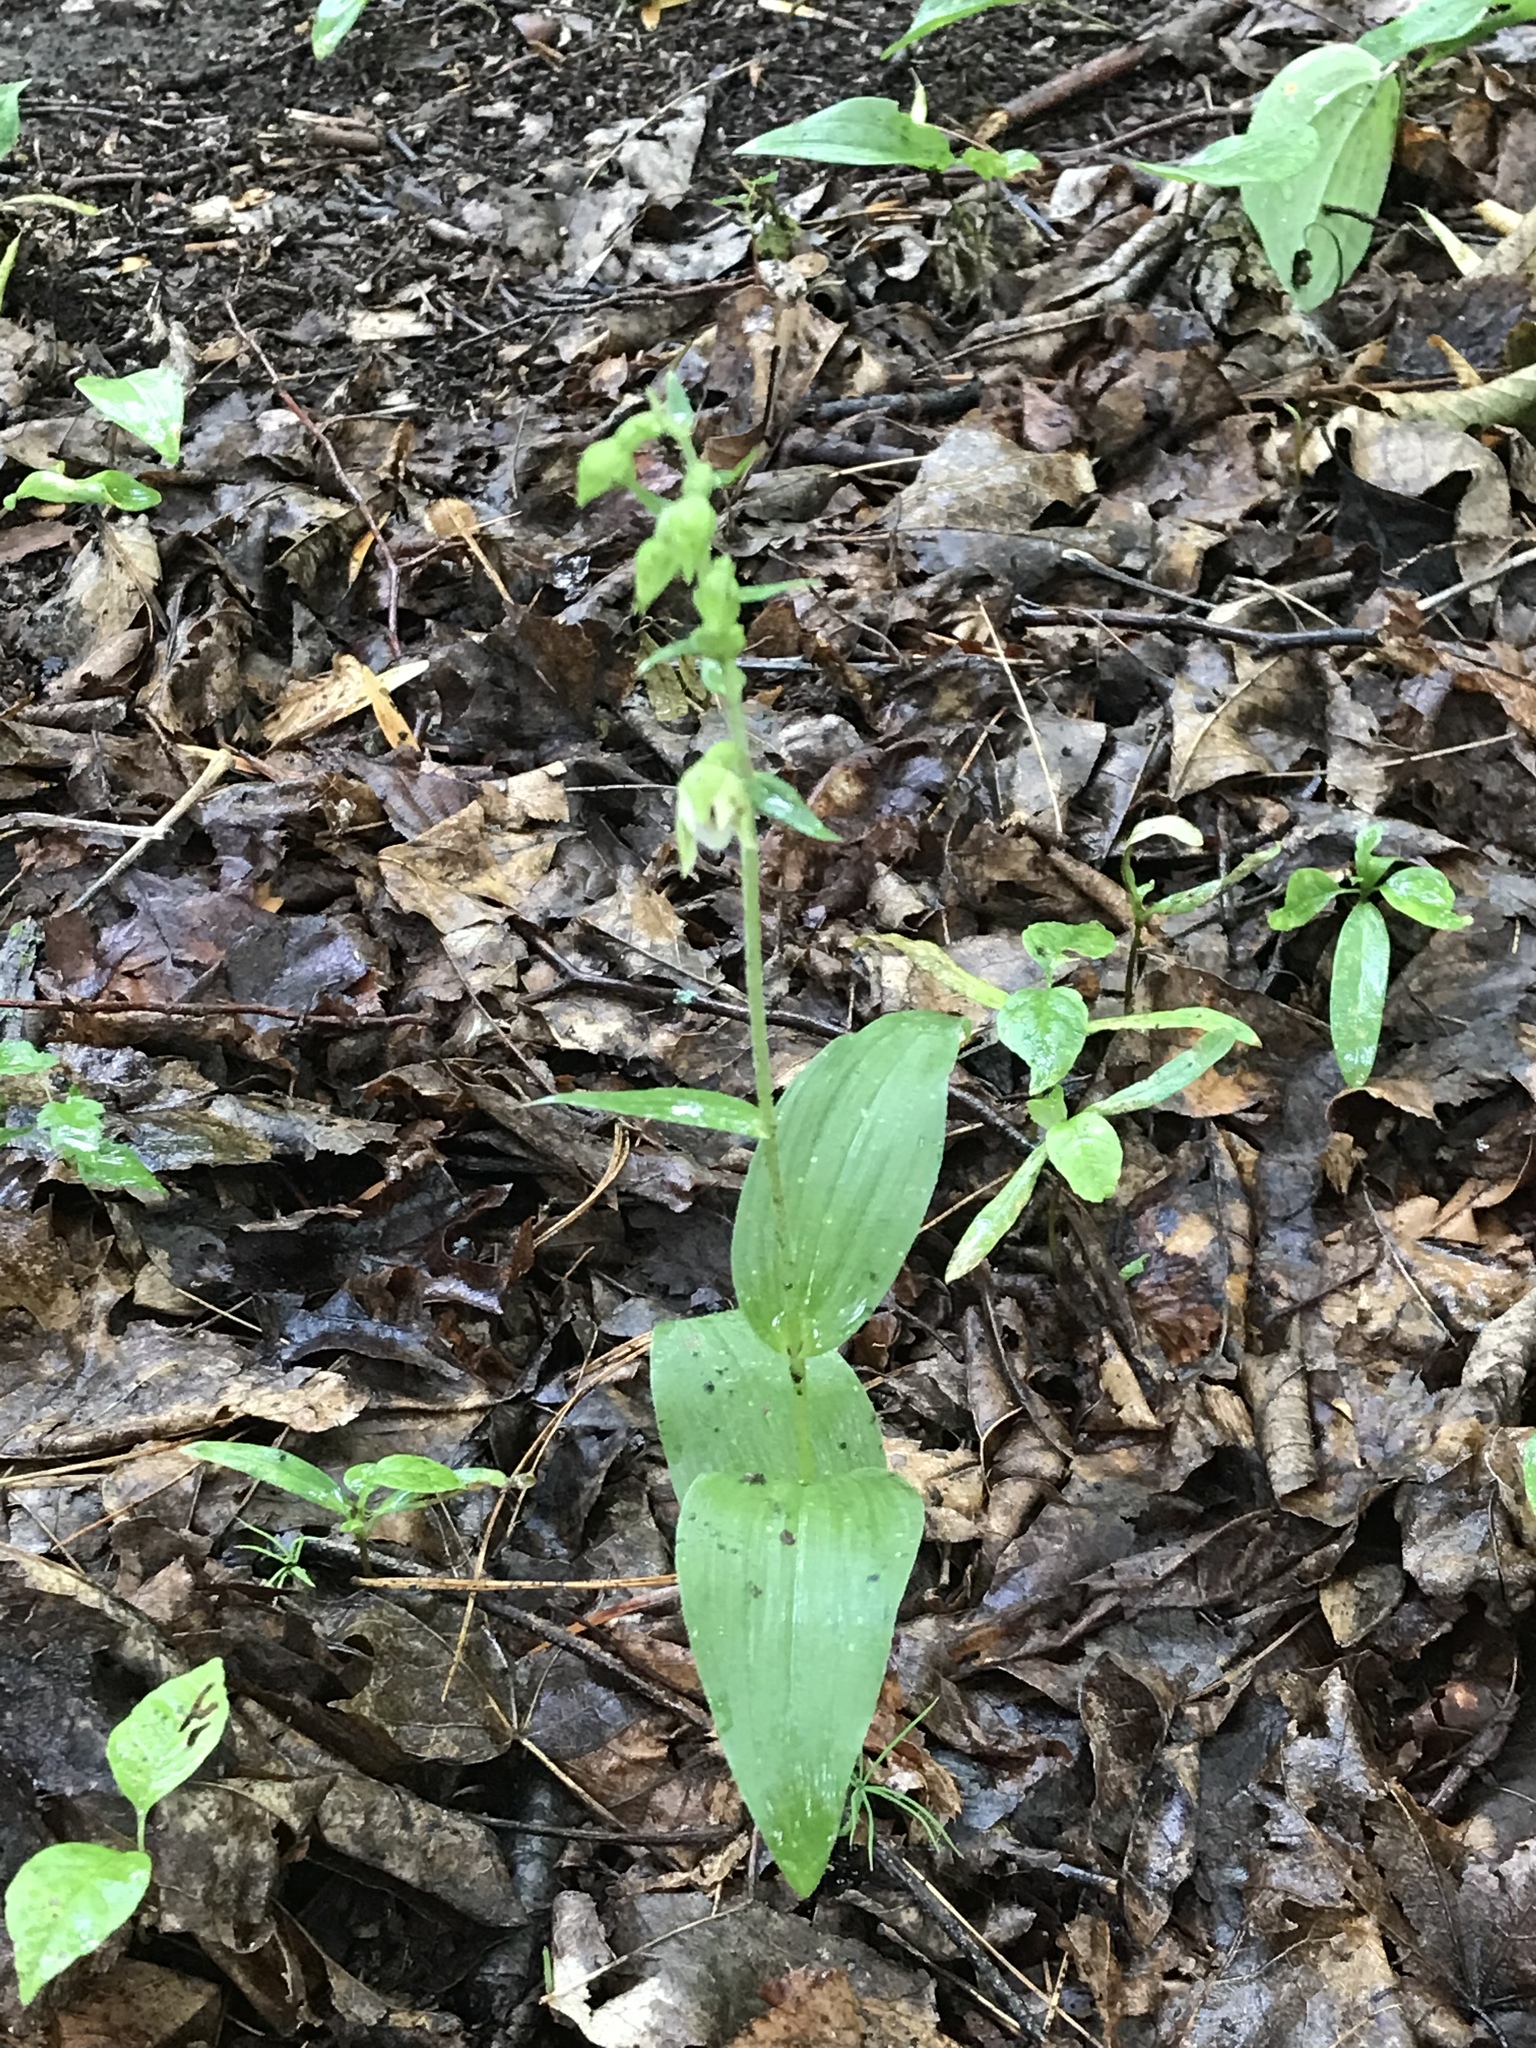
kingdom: Plantae
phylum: Tracheophyta
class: Liliopsida
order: Asparagales
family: Orchidaceae
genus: Epipactis
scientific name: Epipactis helleborine
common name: Broad-leaved helleborine
